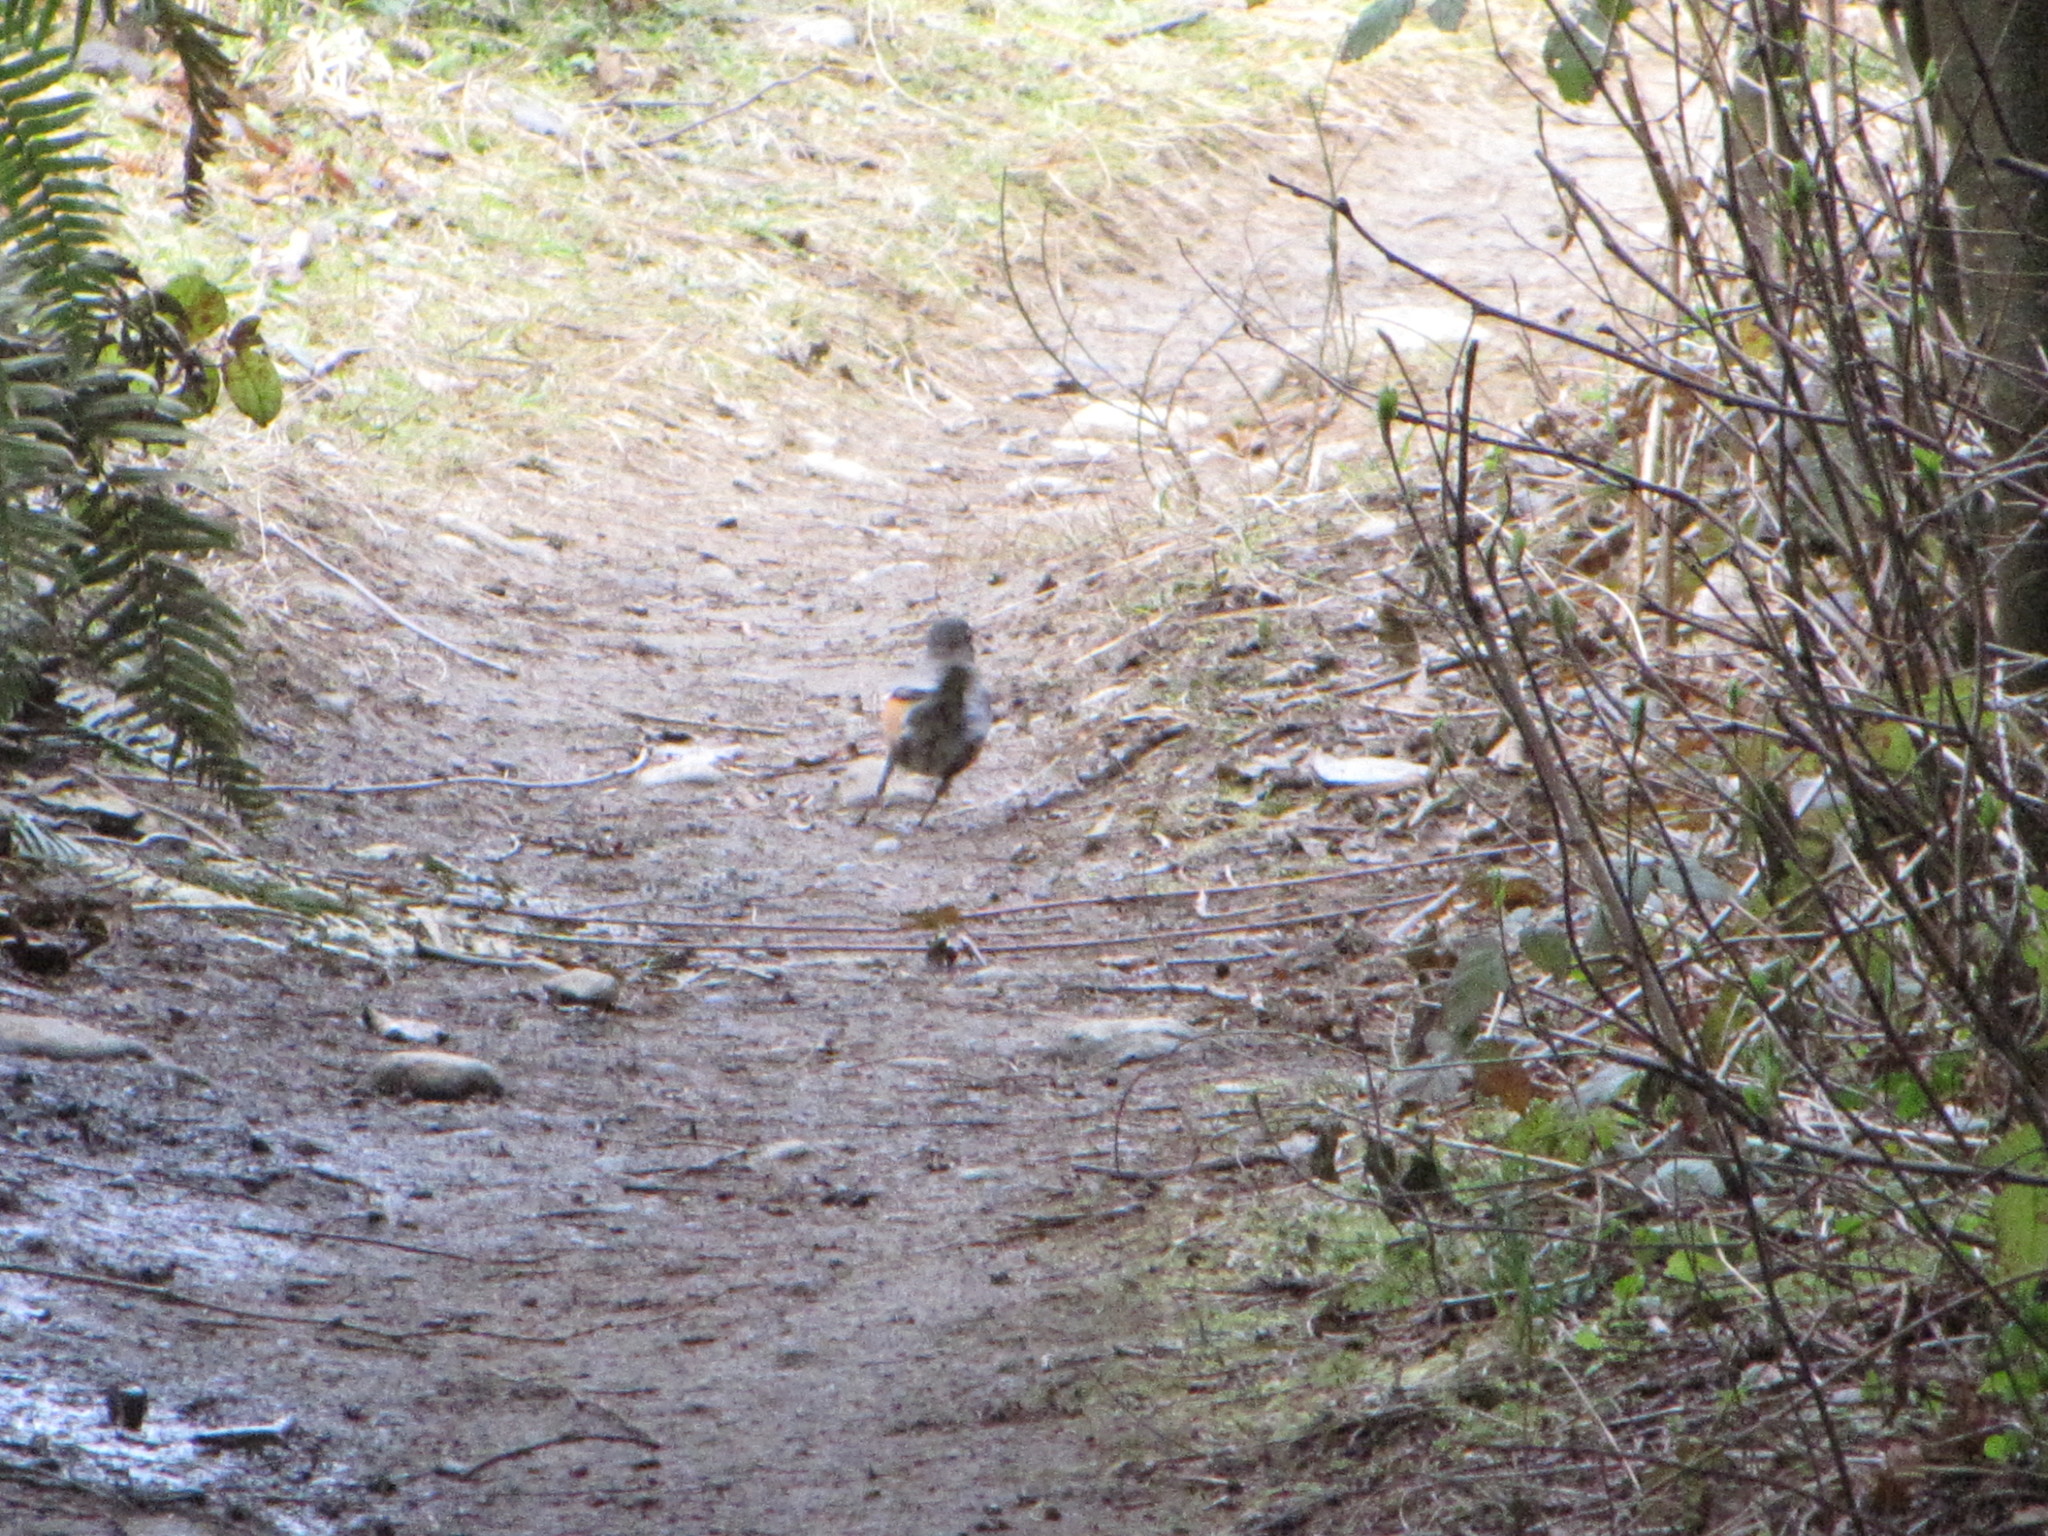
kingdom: Animalia
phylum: Chordata
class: Aves
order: Passeriformes
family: Turdidae
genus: Turdus
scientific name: Turdus migratorius
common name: American robin
